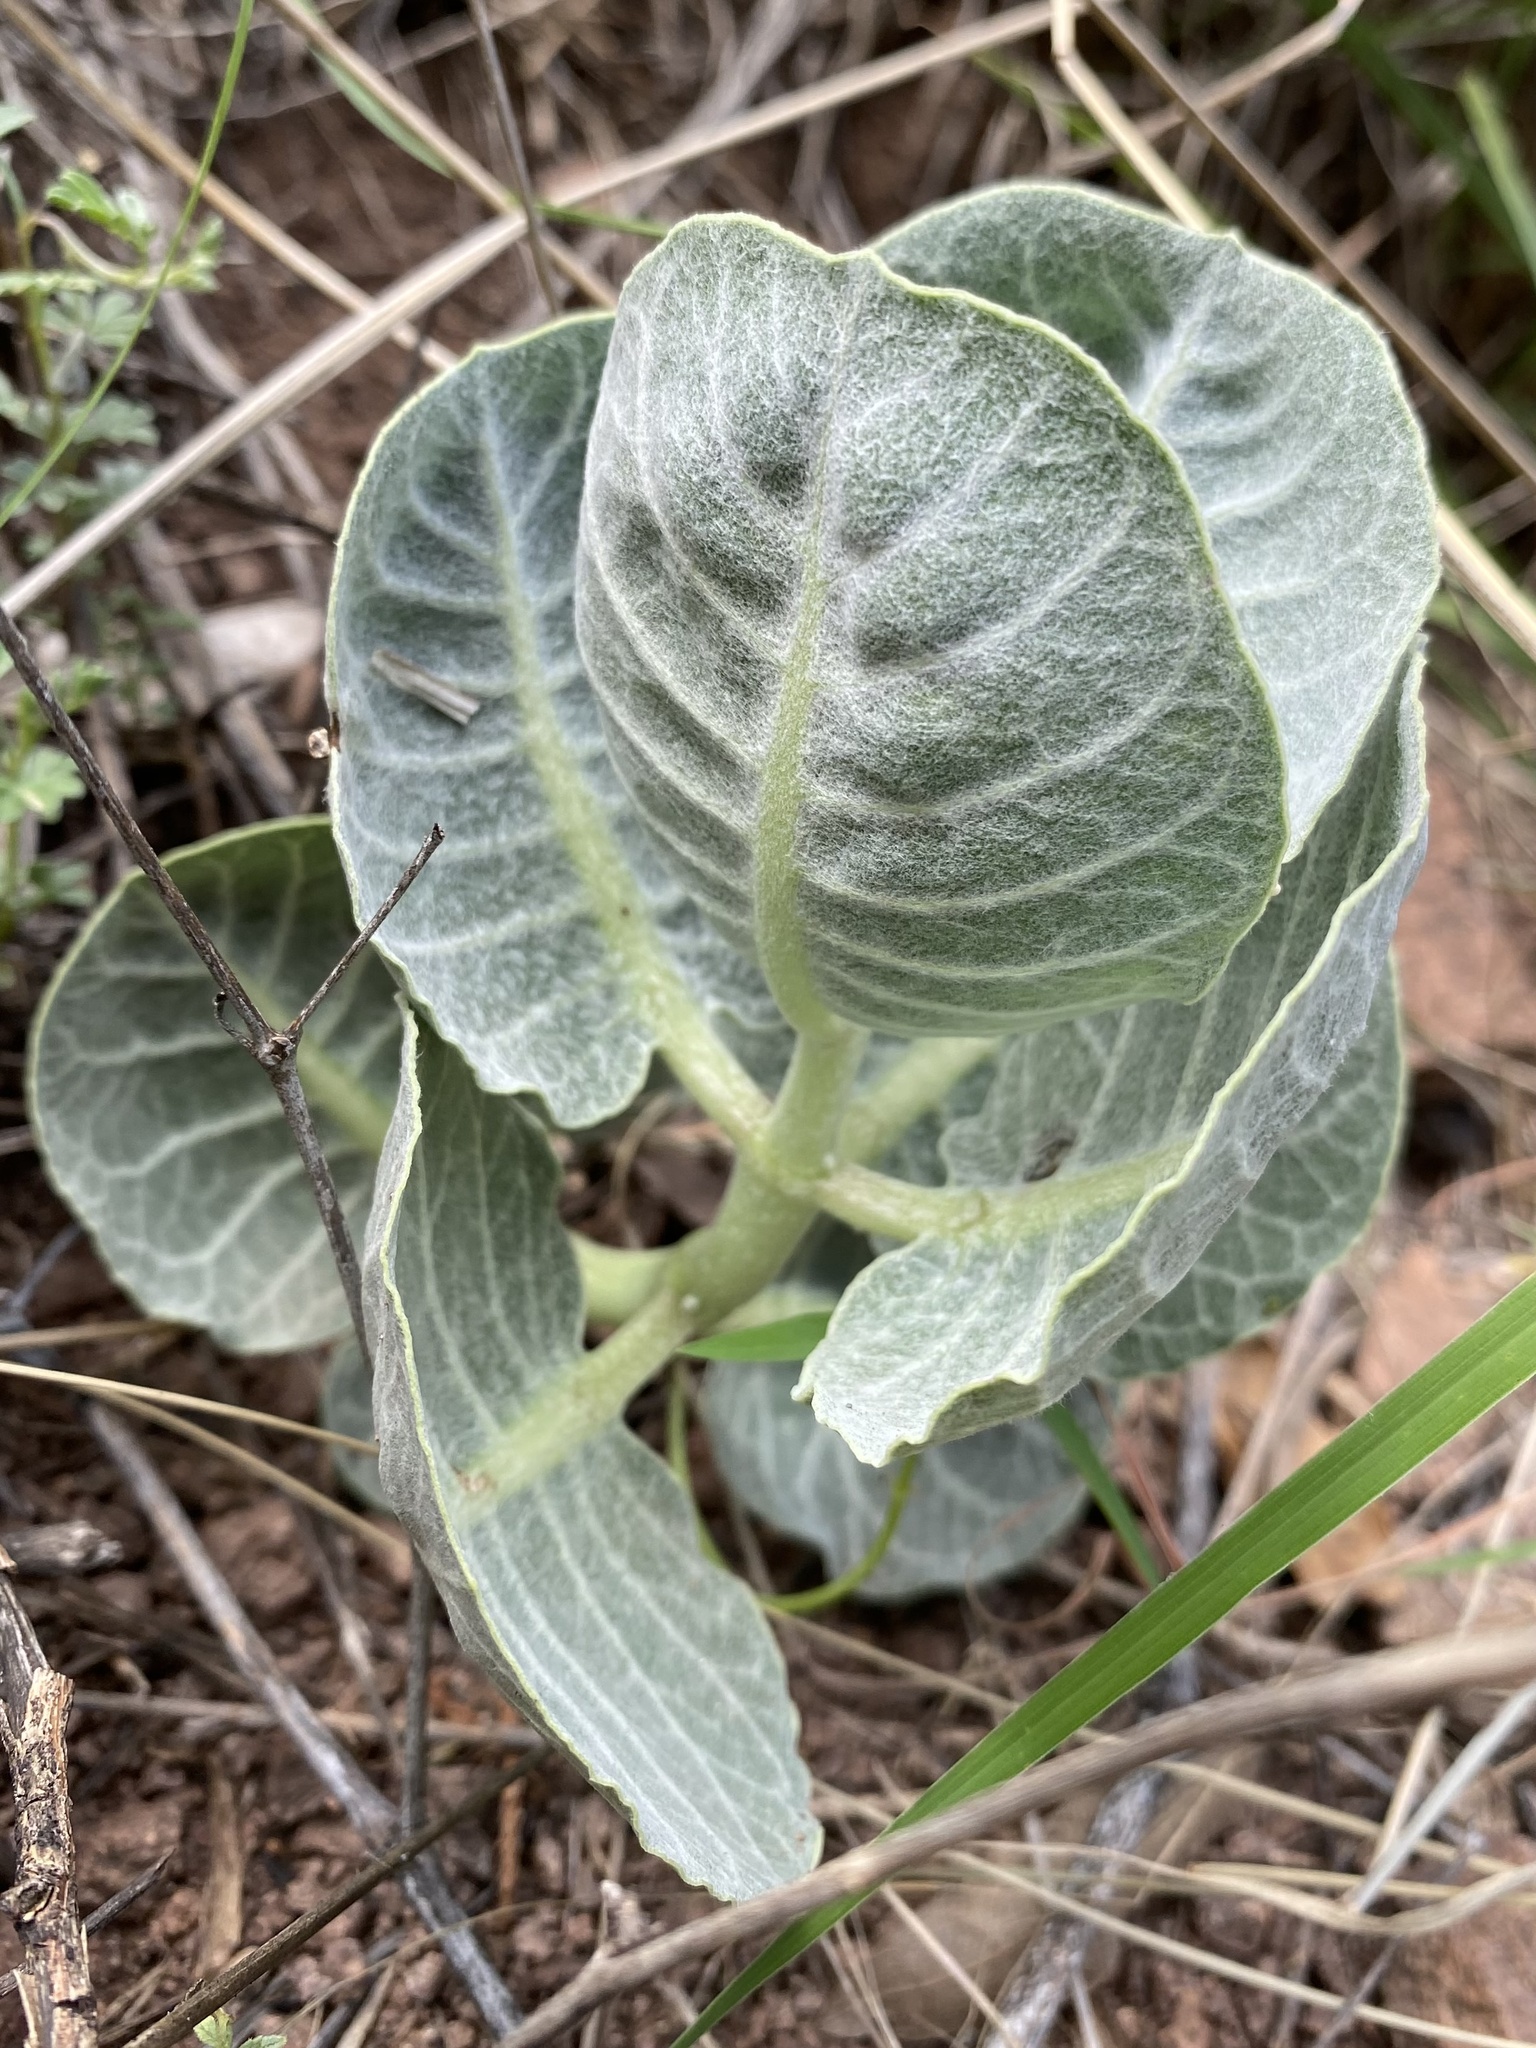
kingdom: Plantae
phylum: Tracheophyta
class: Magnoliopsida
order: Gentianales
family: Apocynaceae
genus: Asclepias
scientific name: Asclepias nummularia
